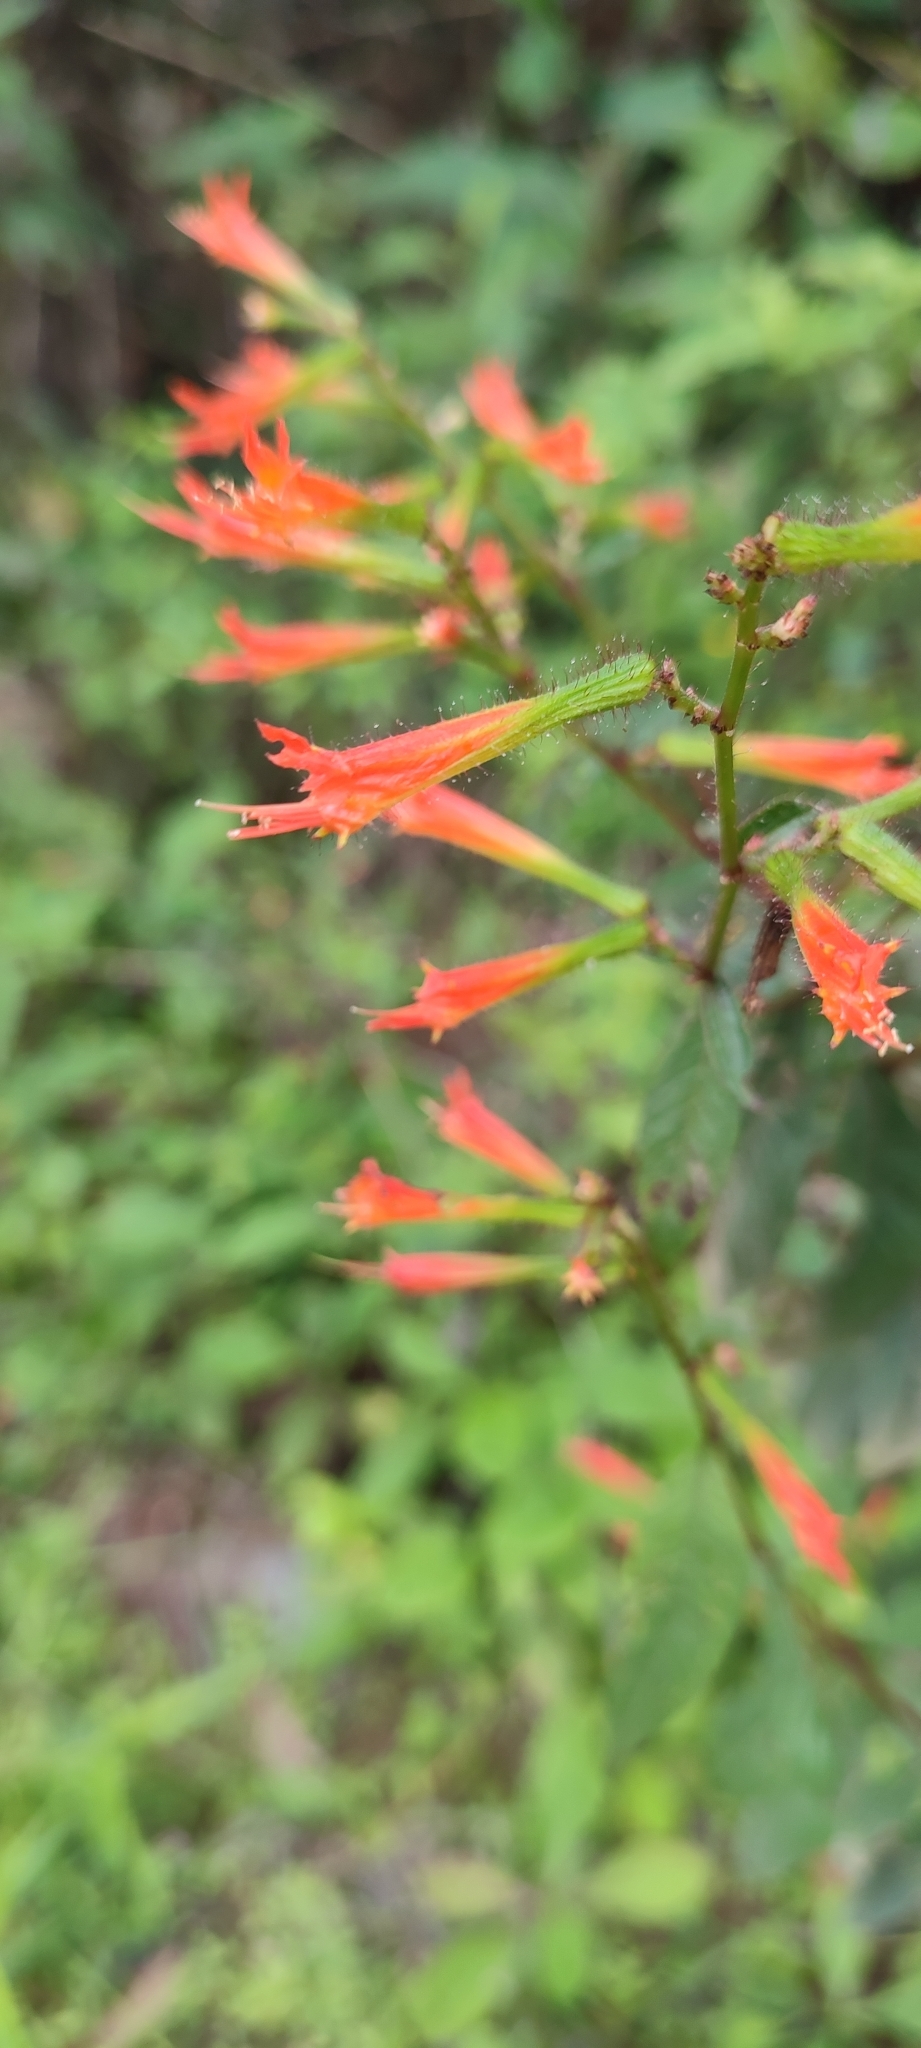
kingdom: Plantae
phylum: Tracheophyta
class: Magnoliopsida
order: Myrtales
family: Lythraceae
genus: Cuphea
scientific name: Cuphea appendiculata
